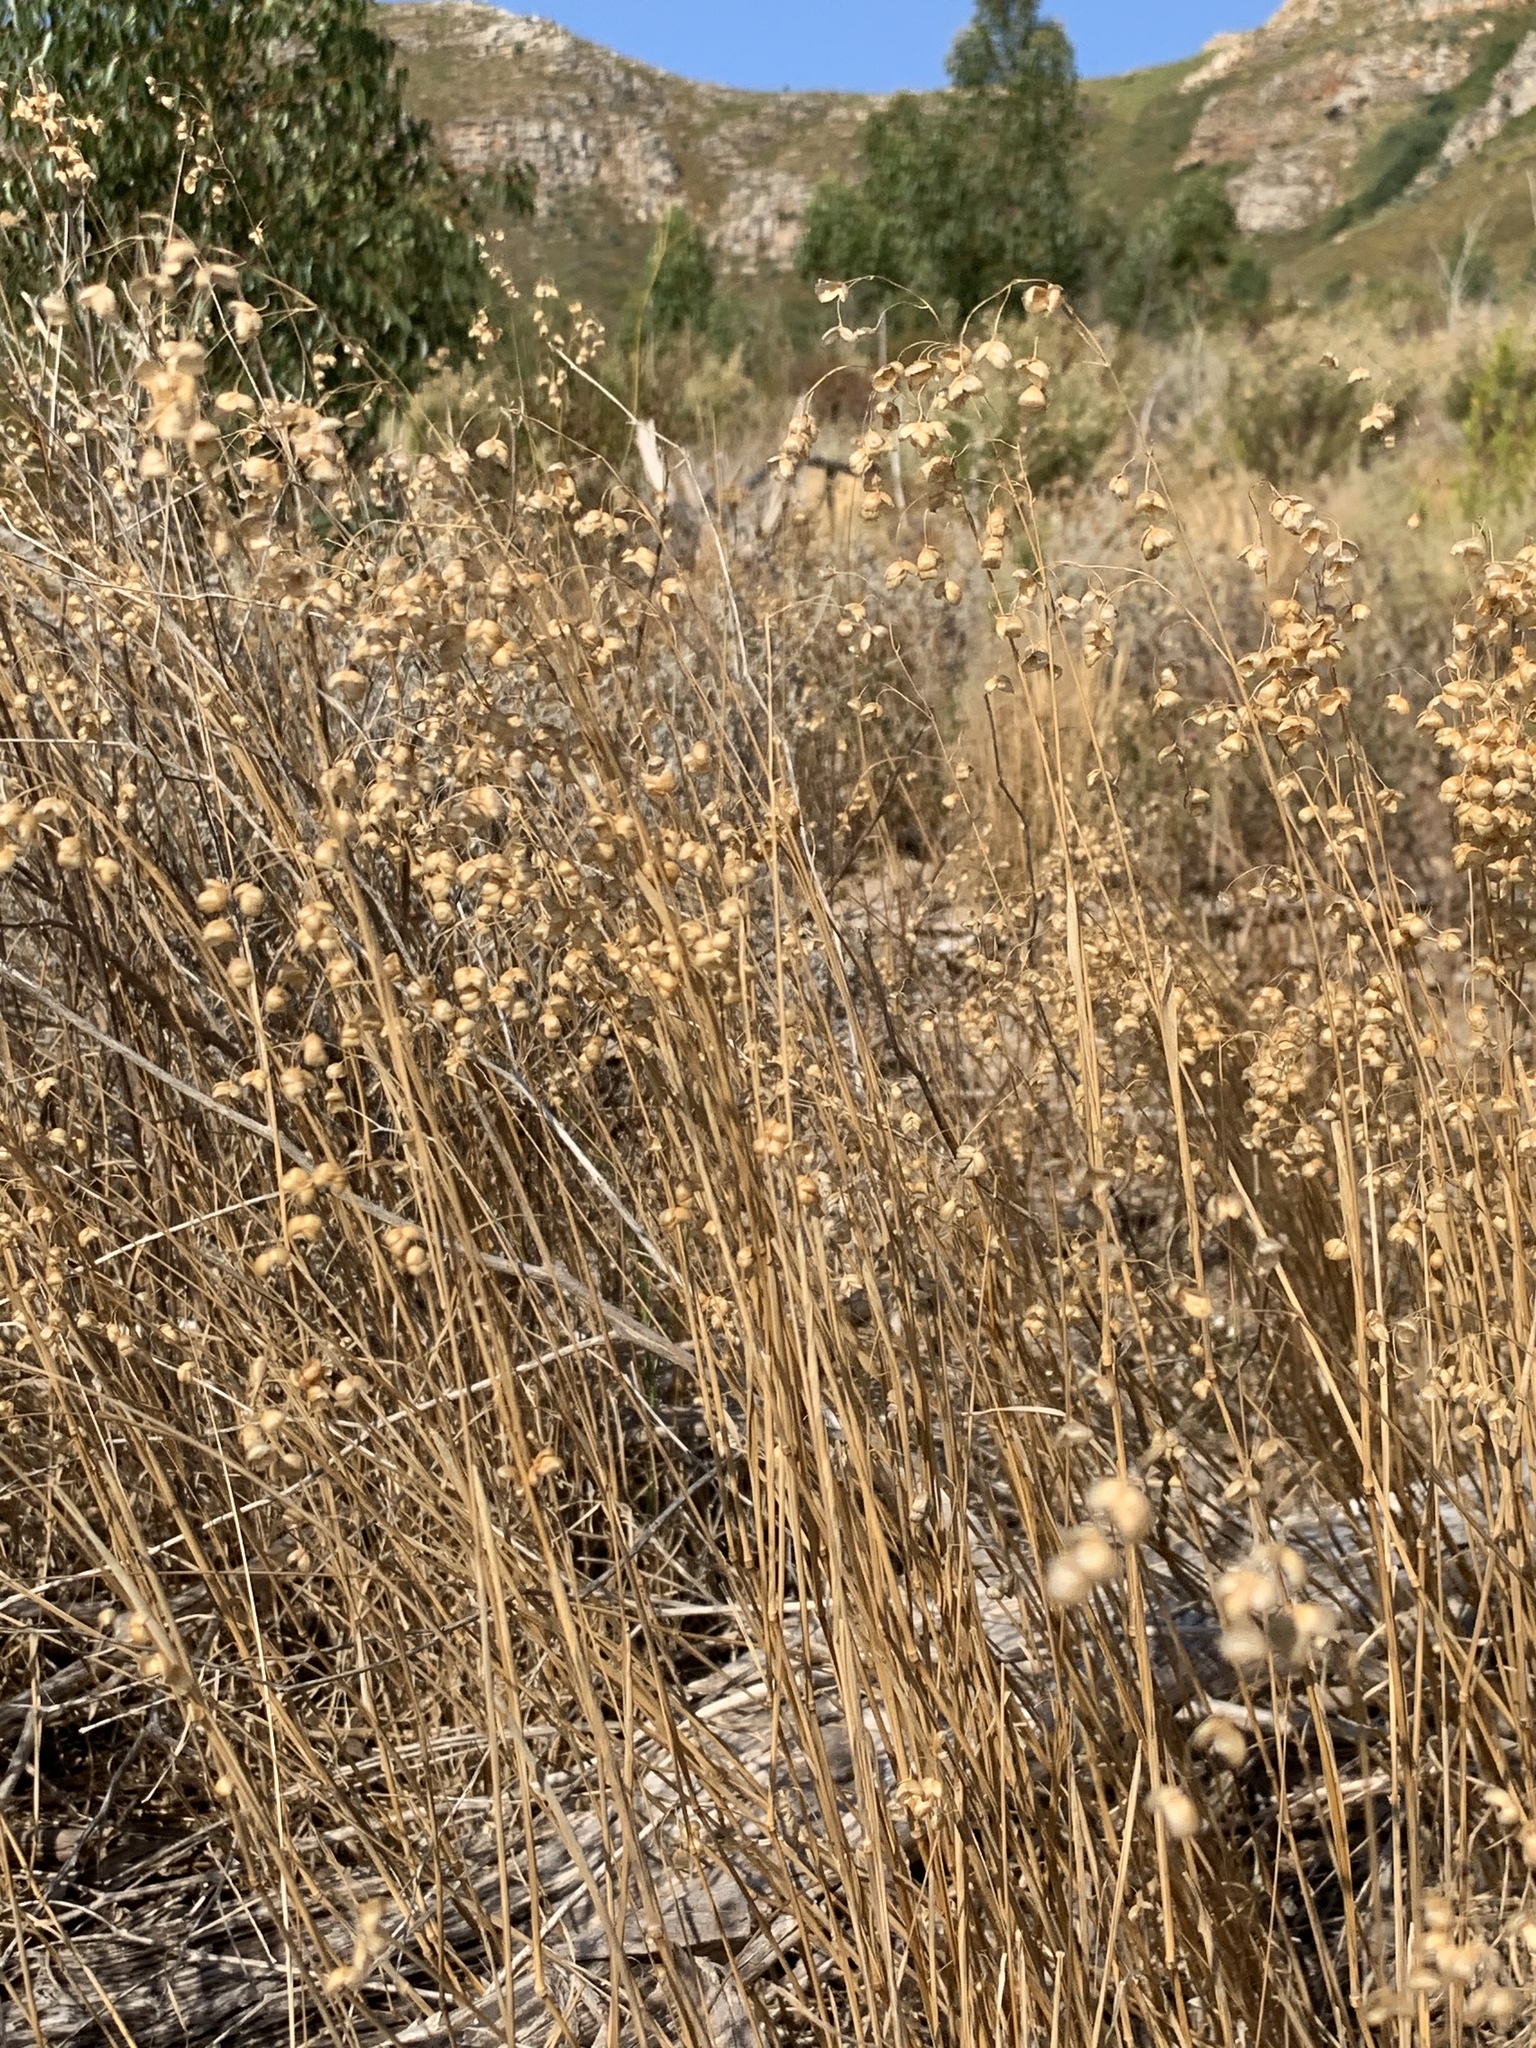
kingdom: Plantae
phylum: Tracheophyta
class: Liliopsida
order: Poales
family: Poaceae
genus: Briza
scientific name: Briza maxima
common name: Big quakinggrass
